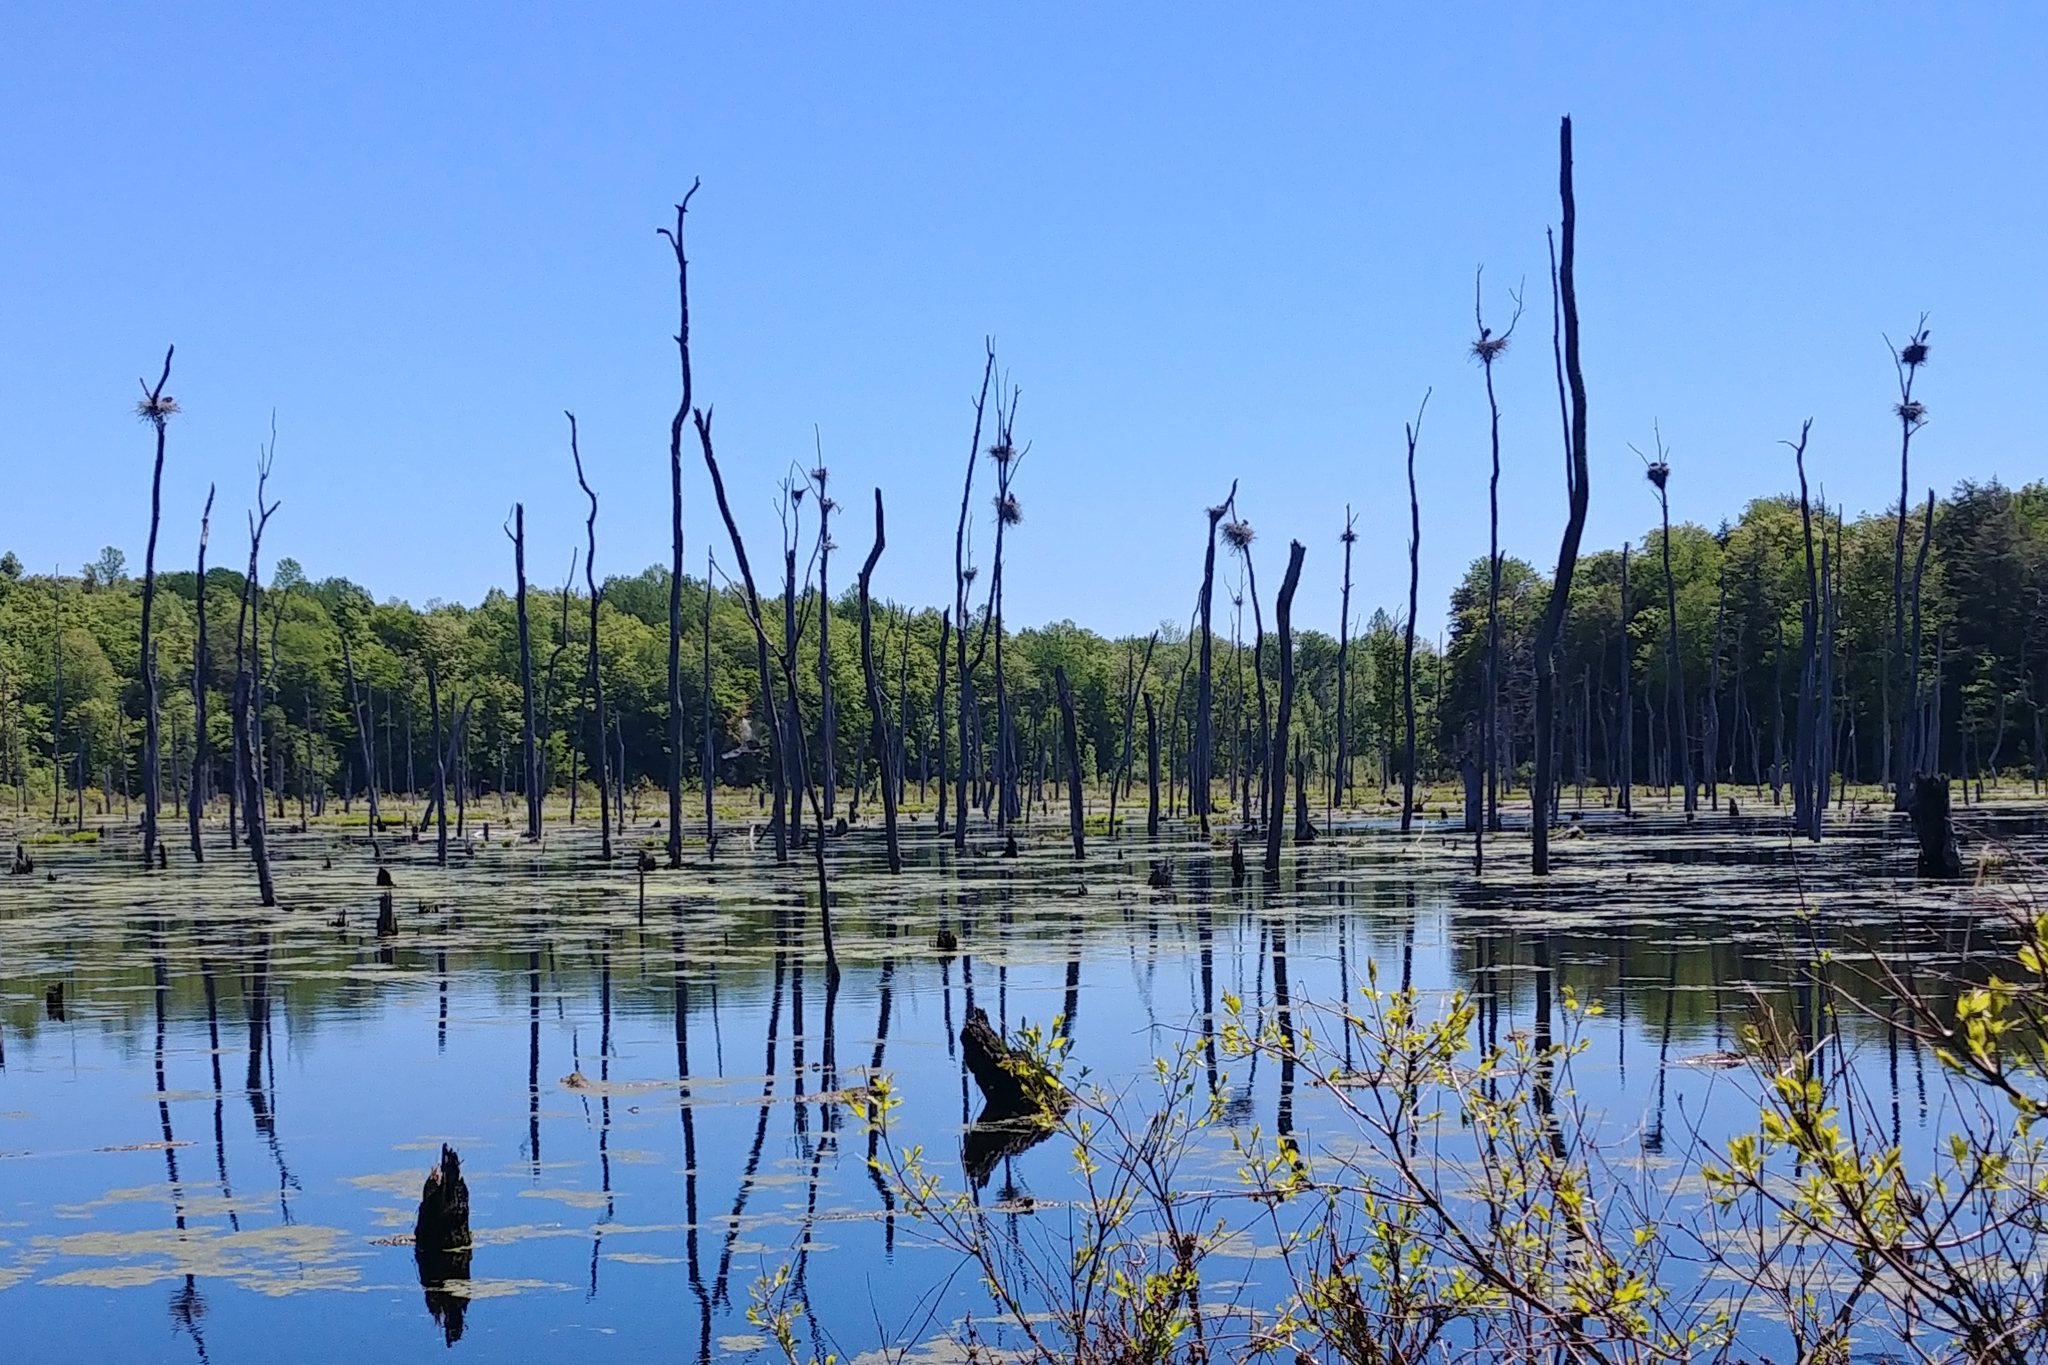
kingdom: Animalia
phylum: Chordata
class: Aves
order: Pelecaniformes
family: Ardeidae
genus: Ardea
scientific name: Ardea herodias
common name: Great blue heron
